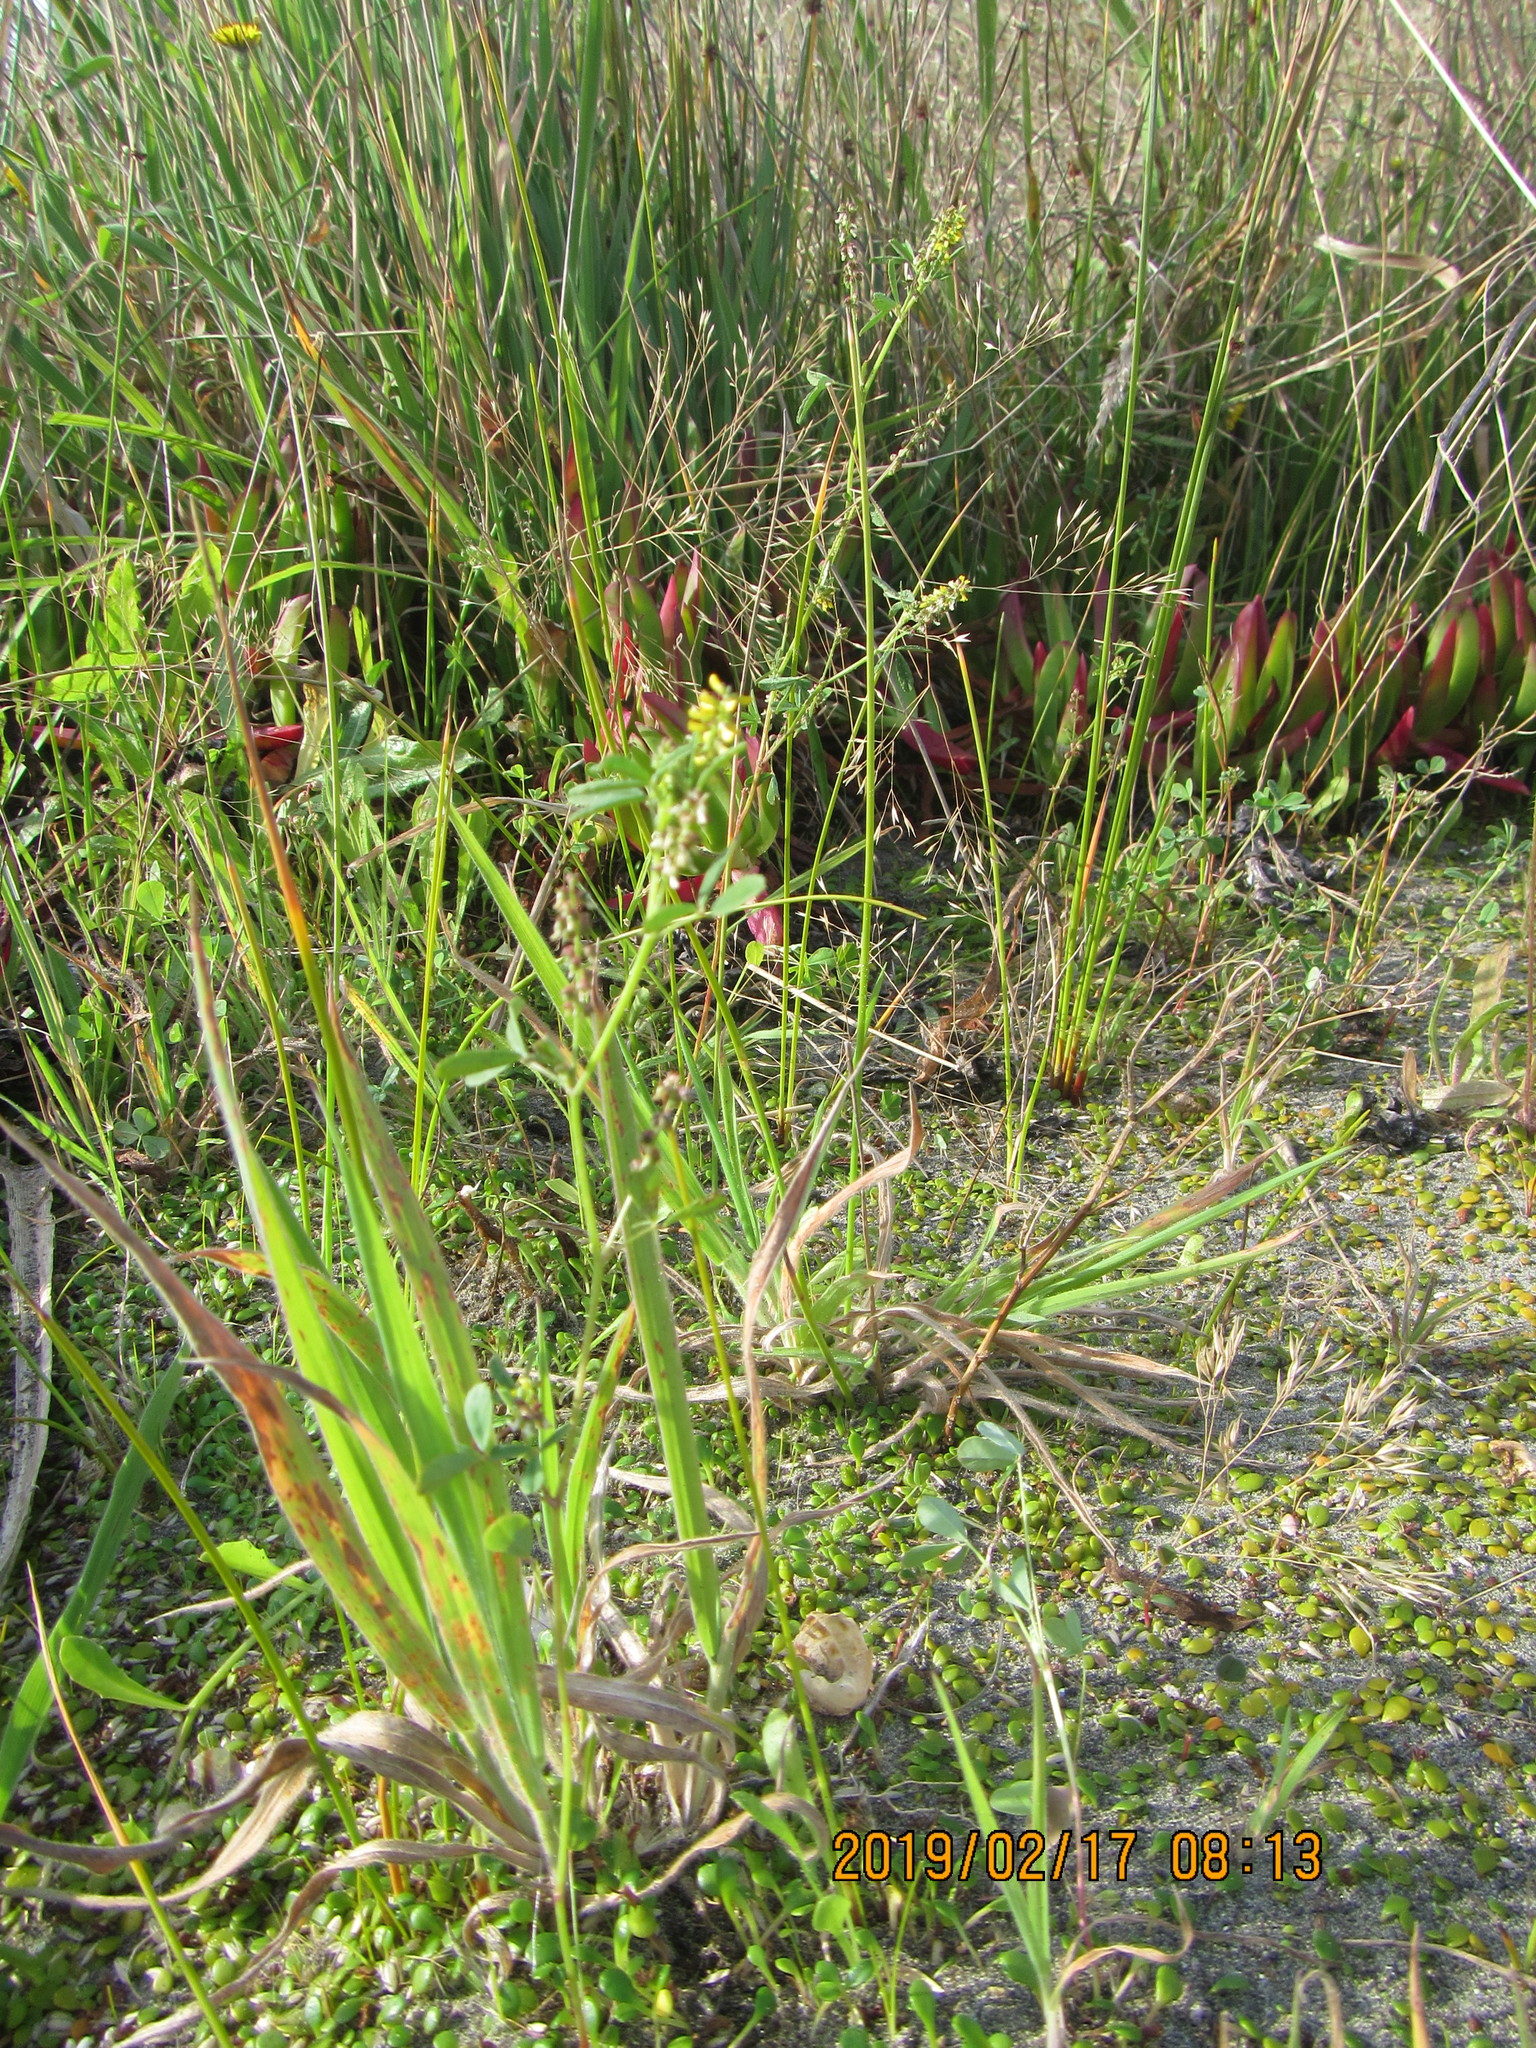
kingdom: Plantae
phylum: Tracheophyta
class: Magnoliopsida
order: Fabales
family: Fabaceae
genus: Melilotus
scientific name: Melilotus indicus
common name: Small melilot
